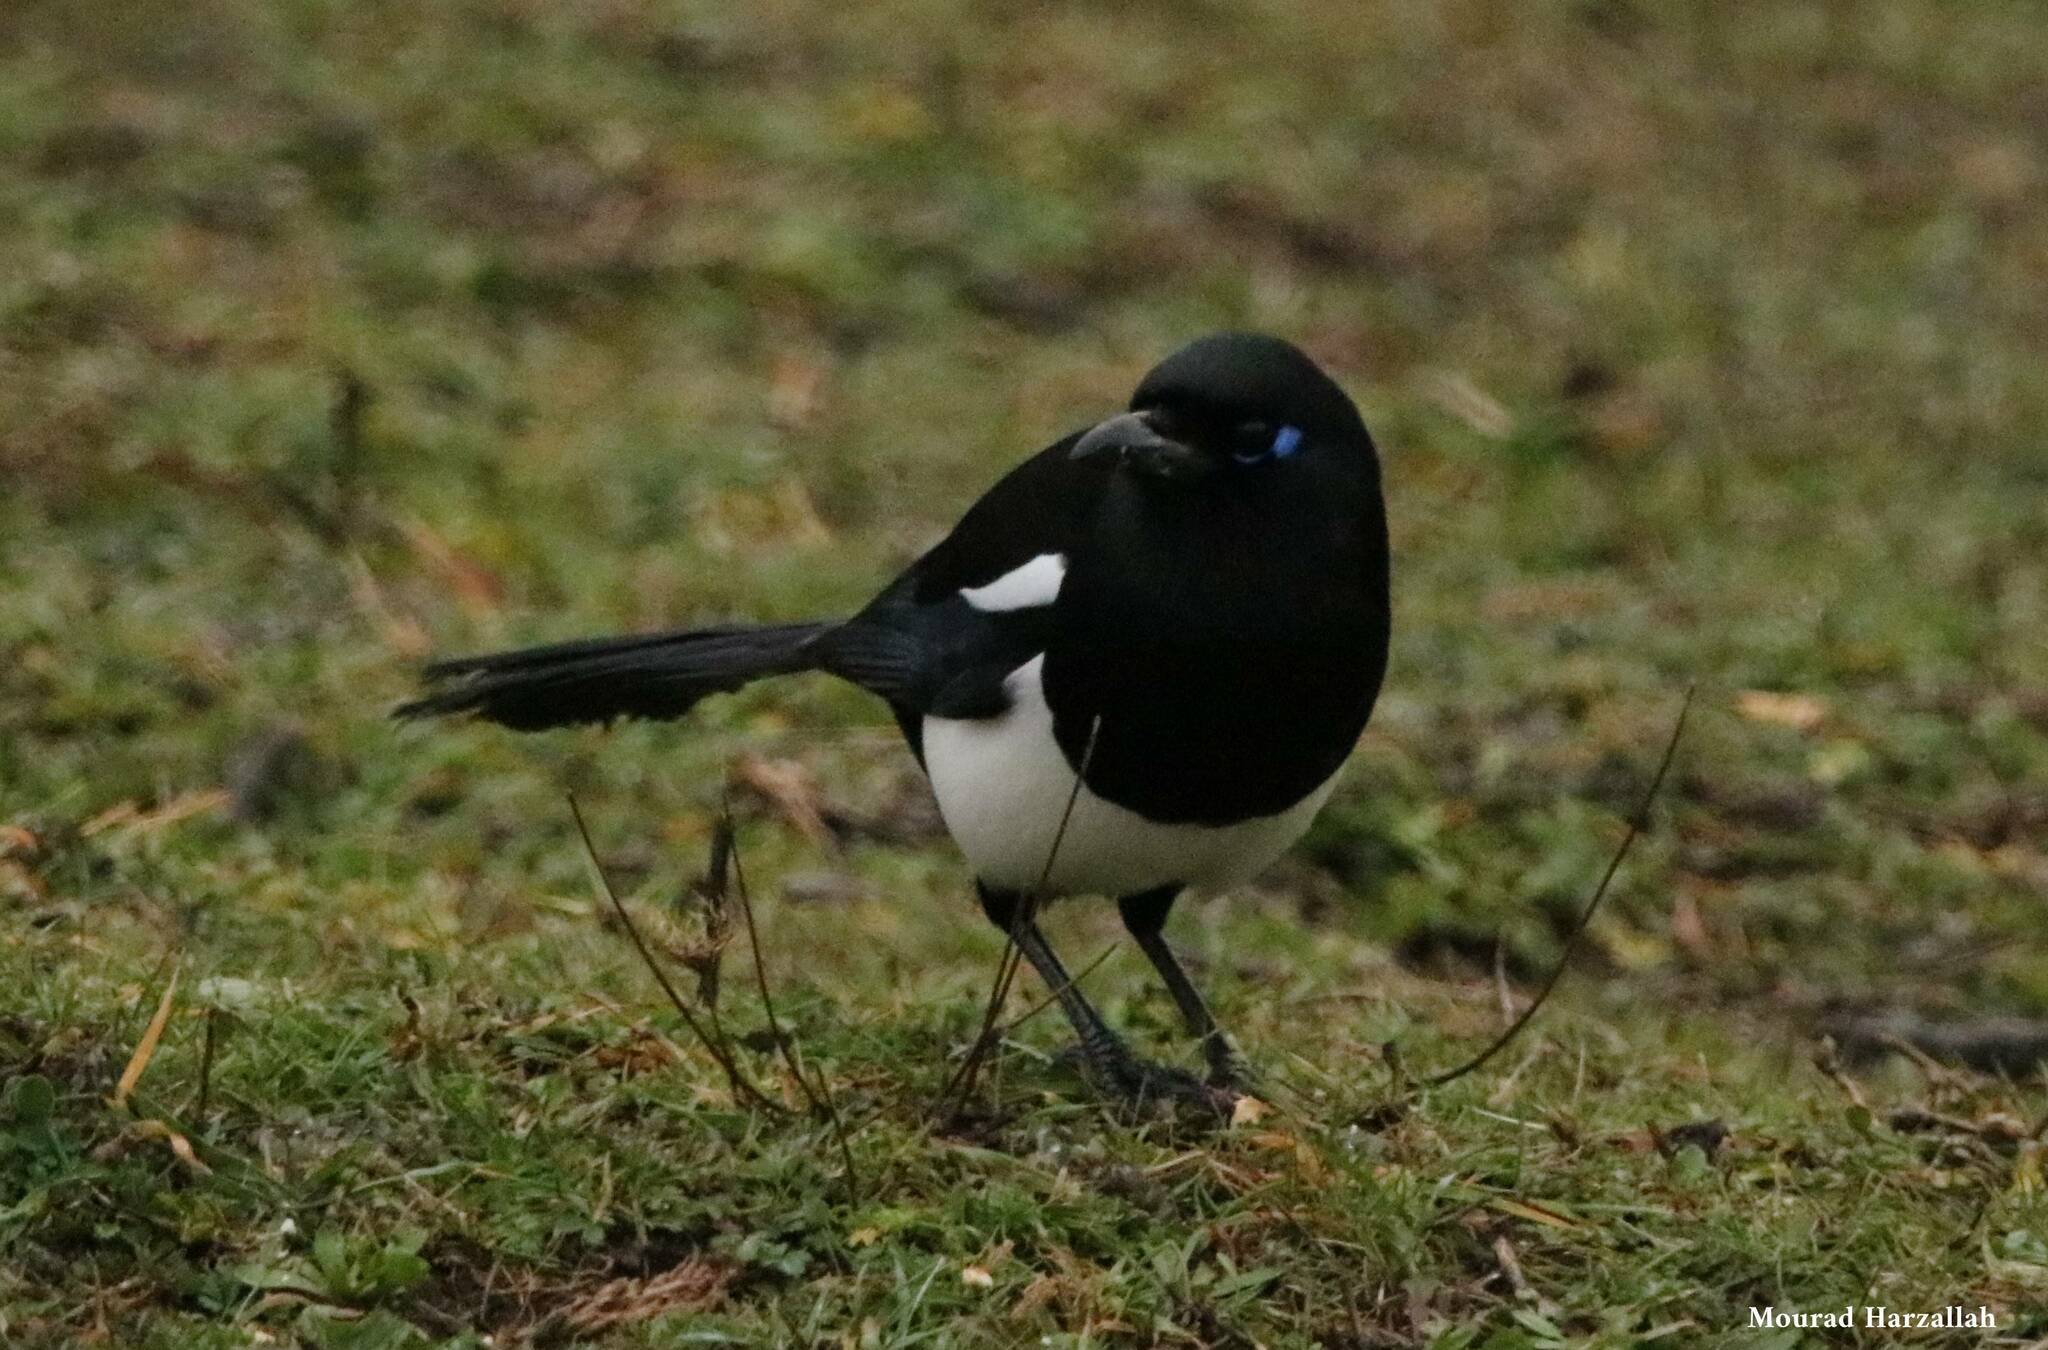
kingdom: Animalia
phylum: Chordata
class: Aves
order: Passeriformes
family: Corvidae
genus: Pica
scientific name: Pica mauritanica
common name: Maghreb magpie
